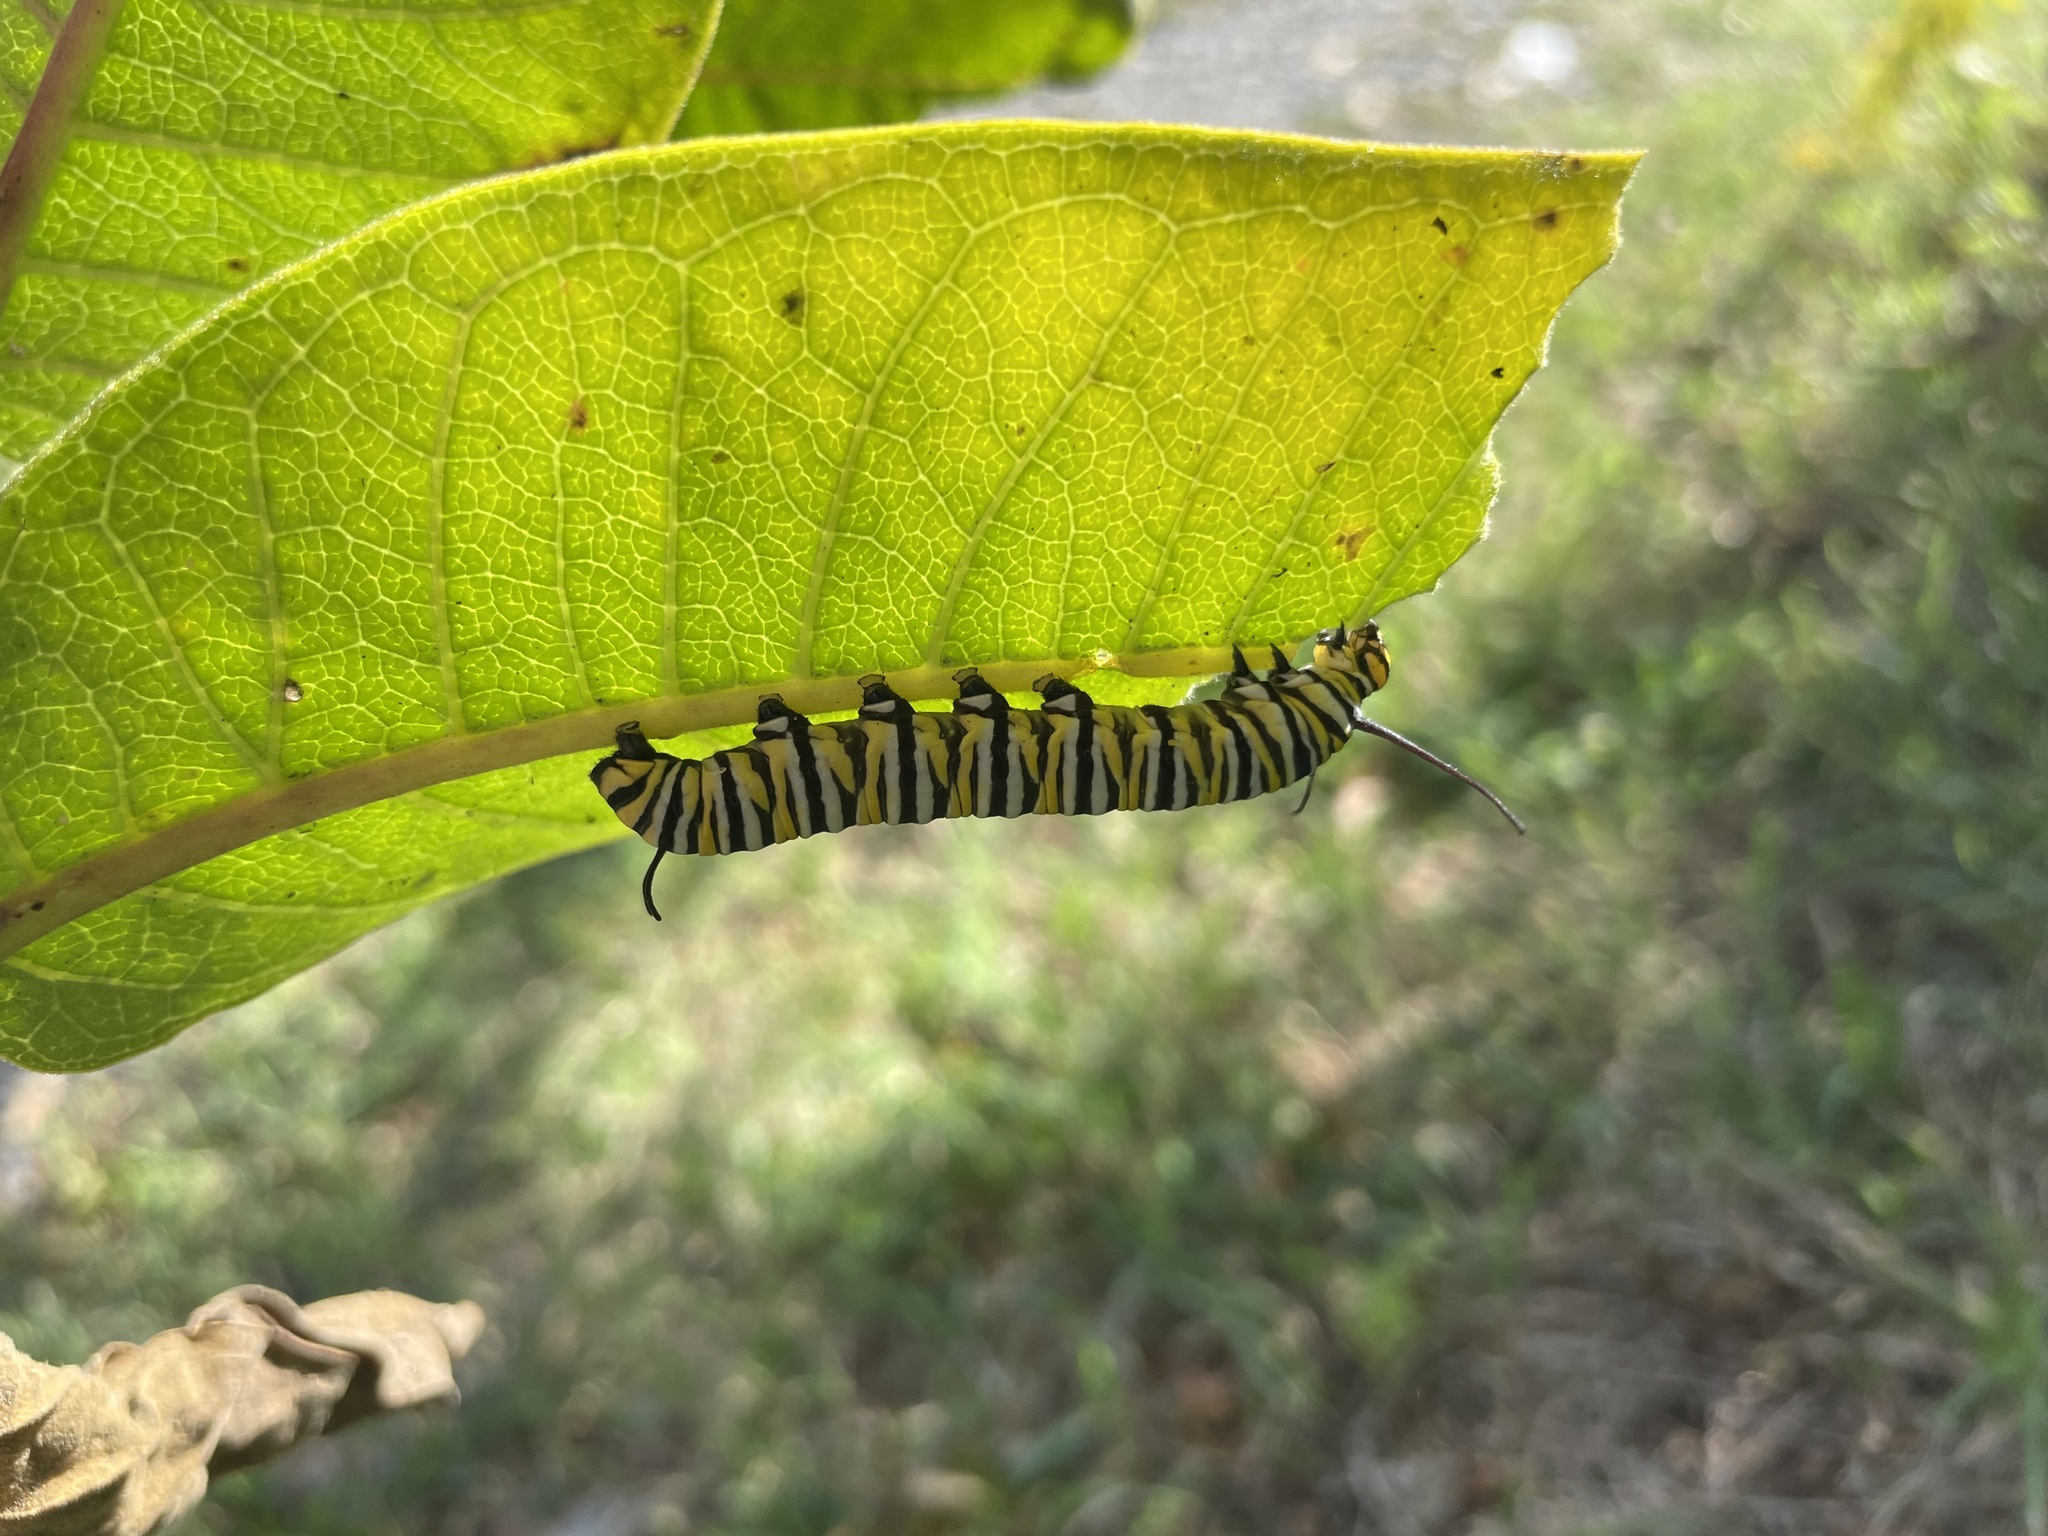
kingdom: Animalia
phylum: Arthropoda
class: Insecta
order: Lepidoptera
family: Nymphalidae
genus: Danaus
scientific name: Danaus plexippus
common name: Monarch
